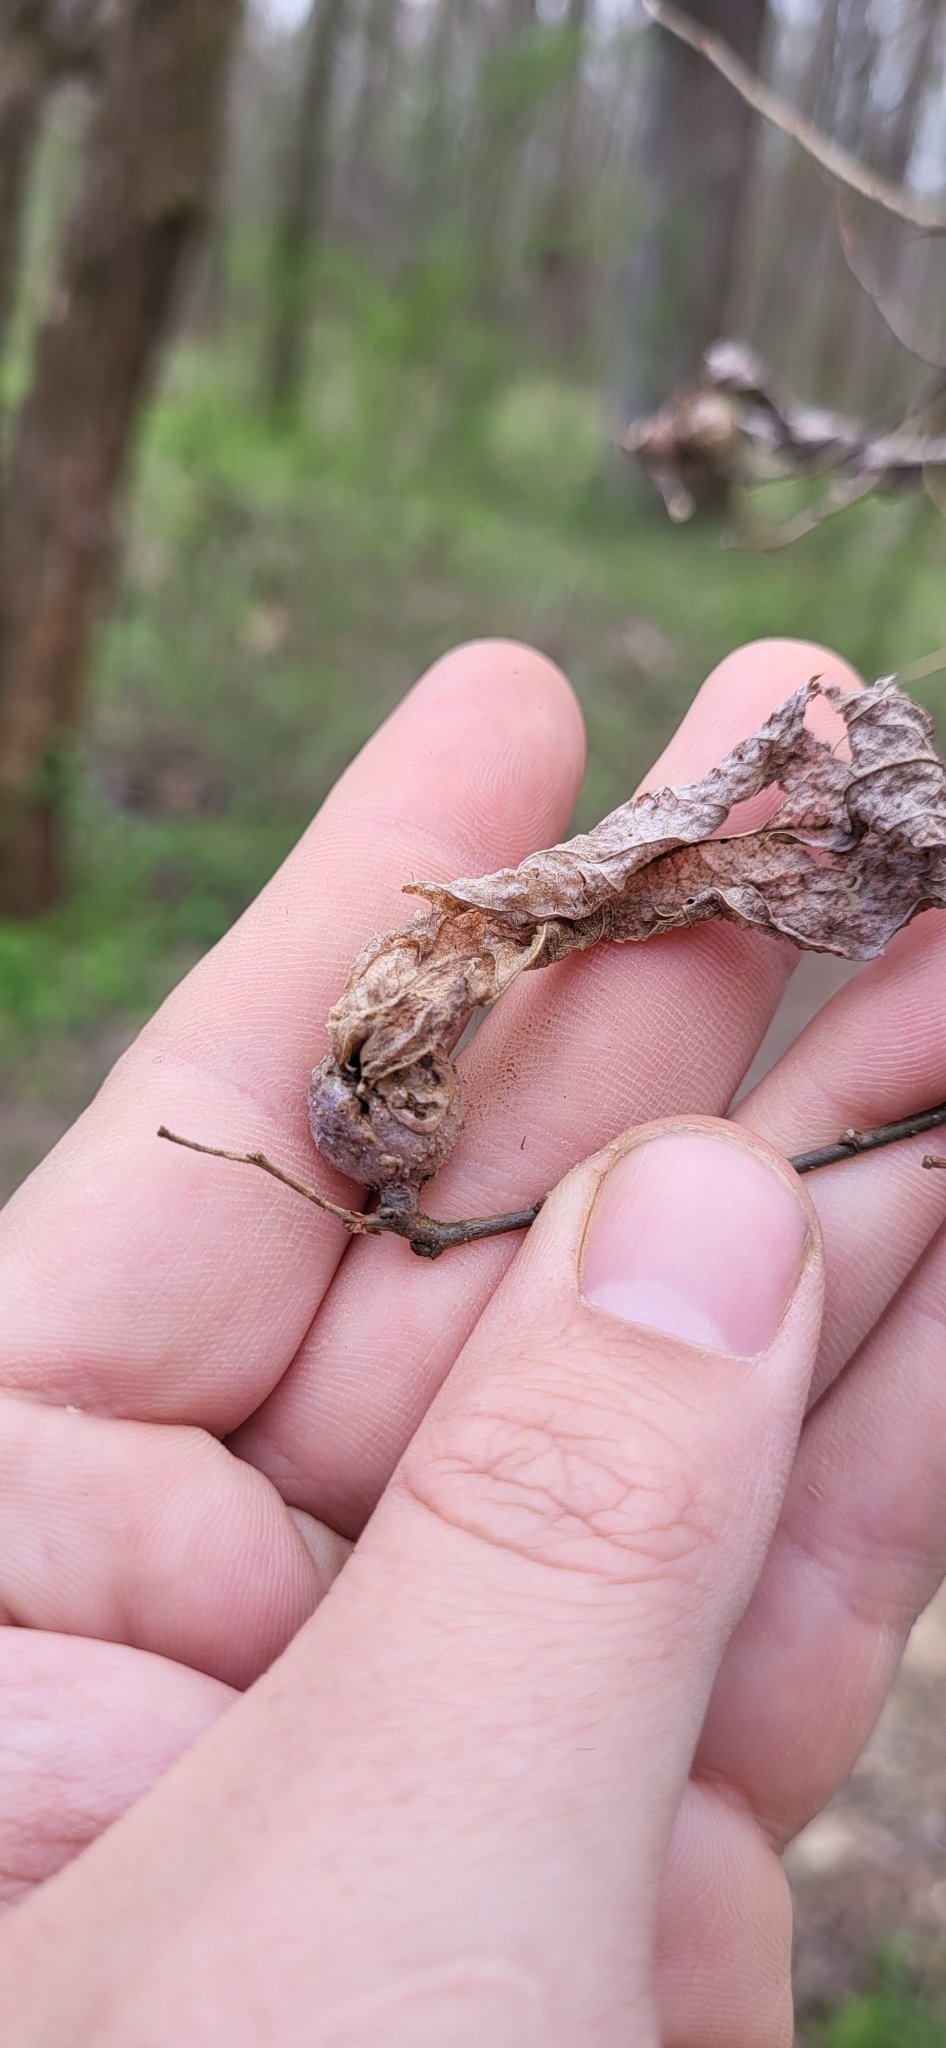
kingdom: Animalia
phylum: Arthropoda
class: Insecta
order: Hemiptera
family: Aphalaridae
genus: Pachypsylla
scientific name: Pachypsylla venusta
